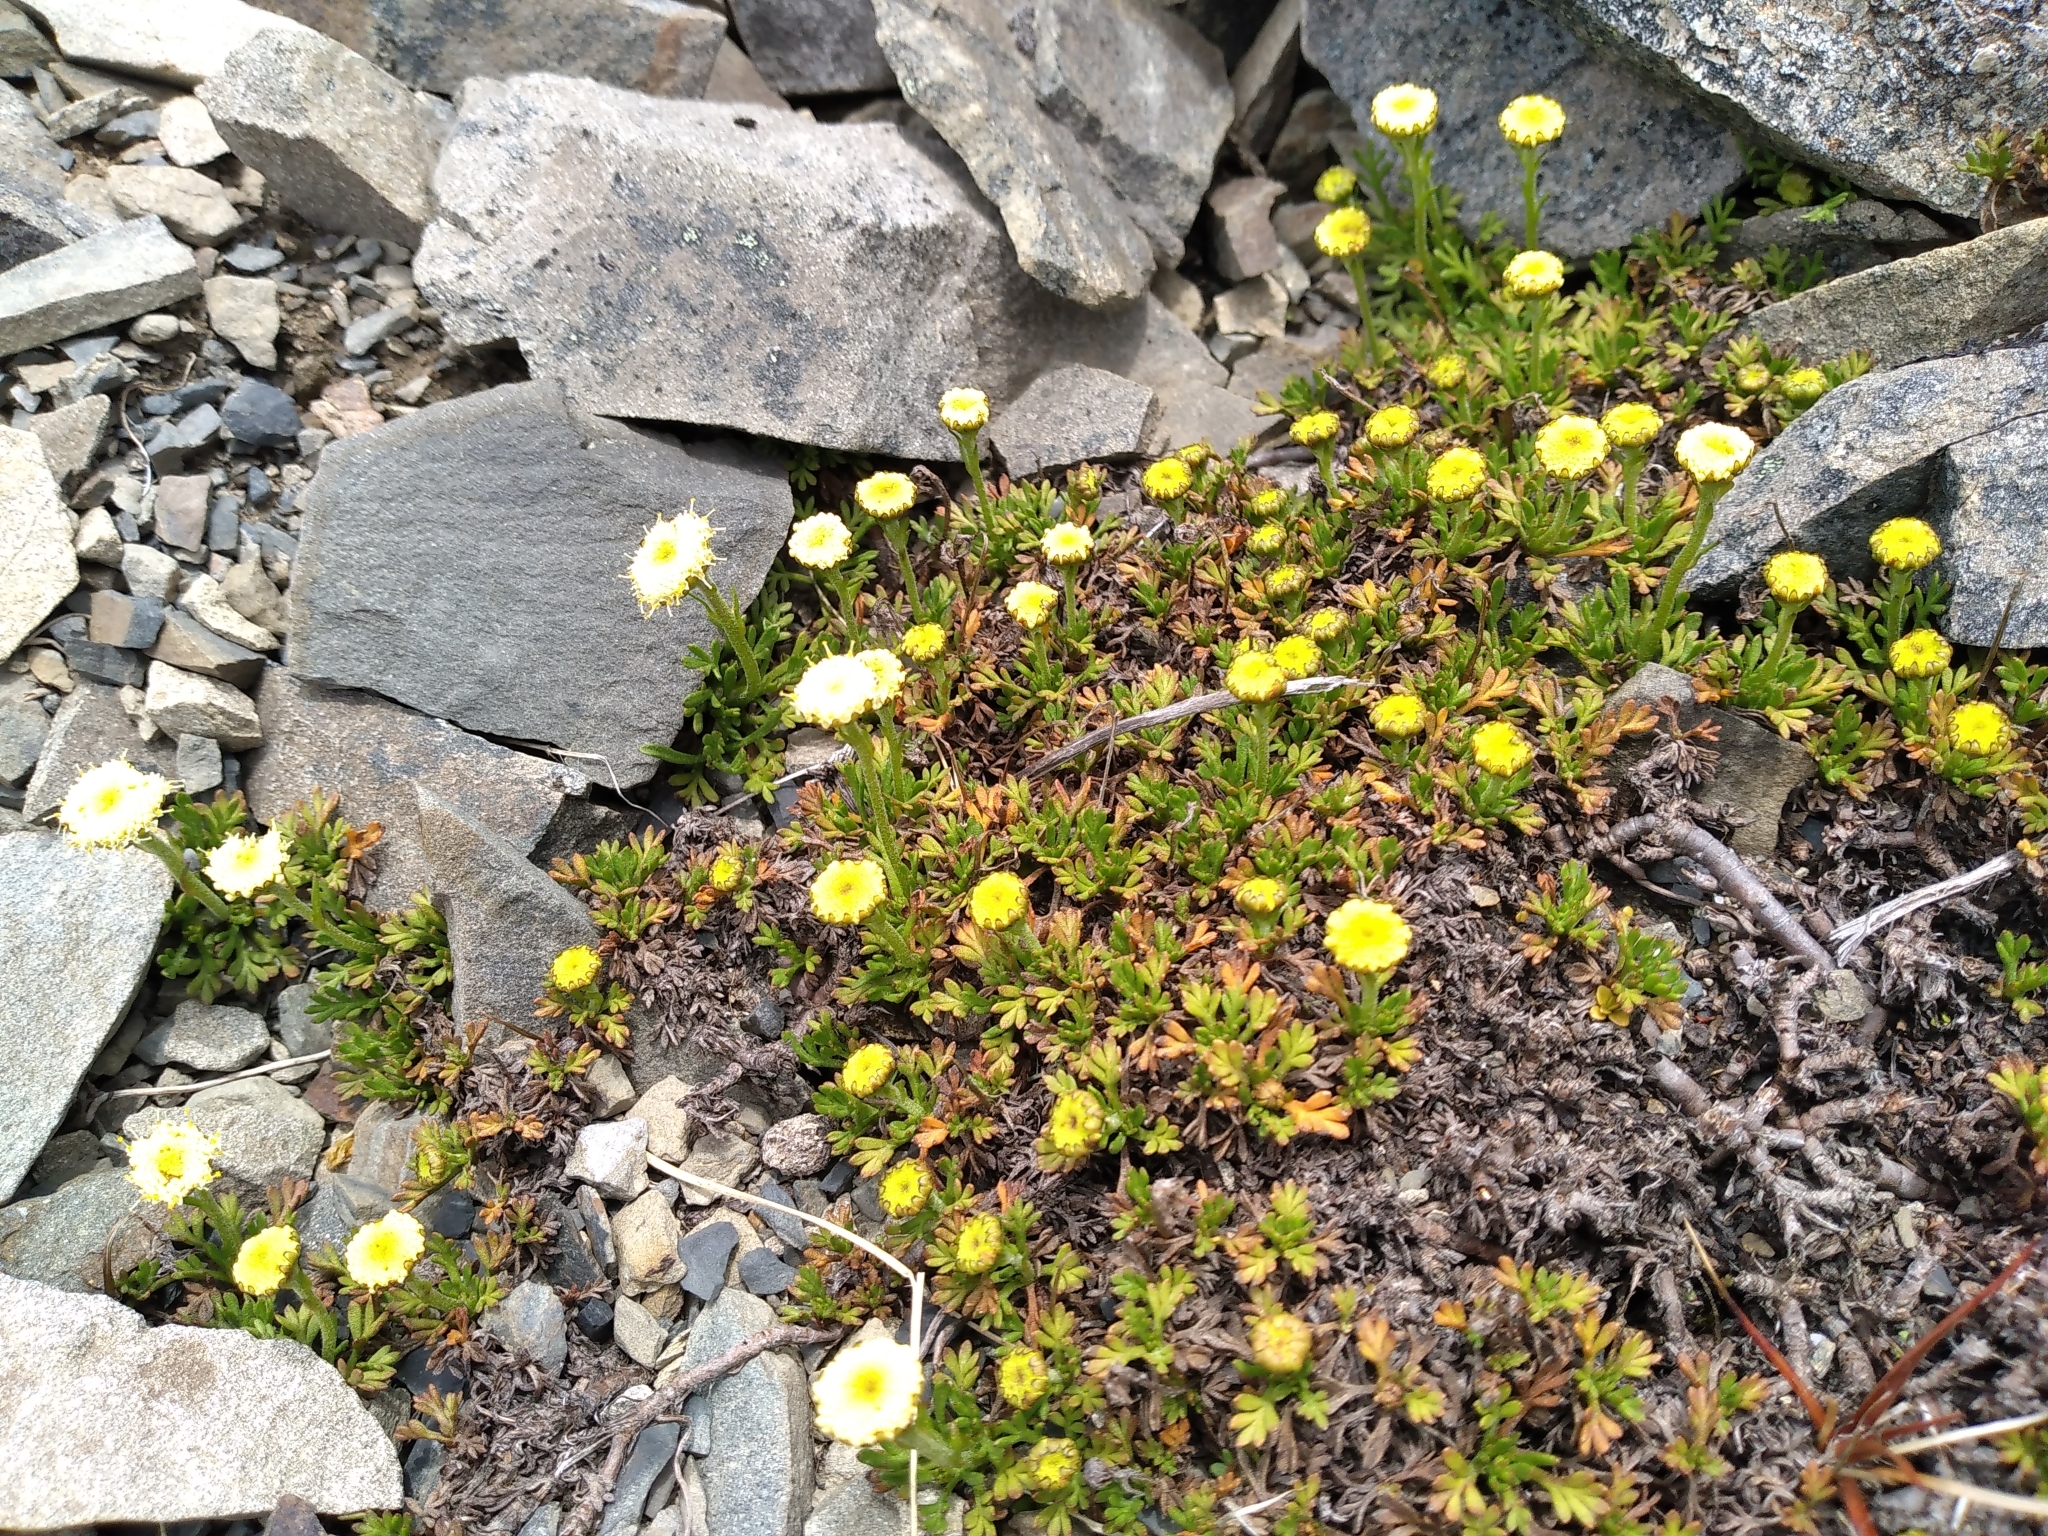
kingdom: Plantae
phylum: Tracheophyta
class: Magnoliopsida
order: Asterales
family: Asteraceae
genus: Leptinella
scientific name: Leptinella pyrethrifolia
